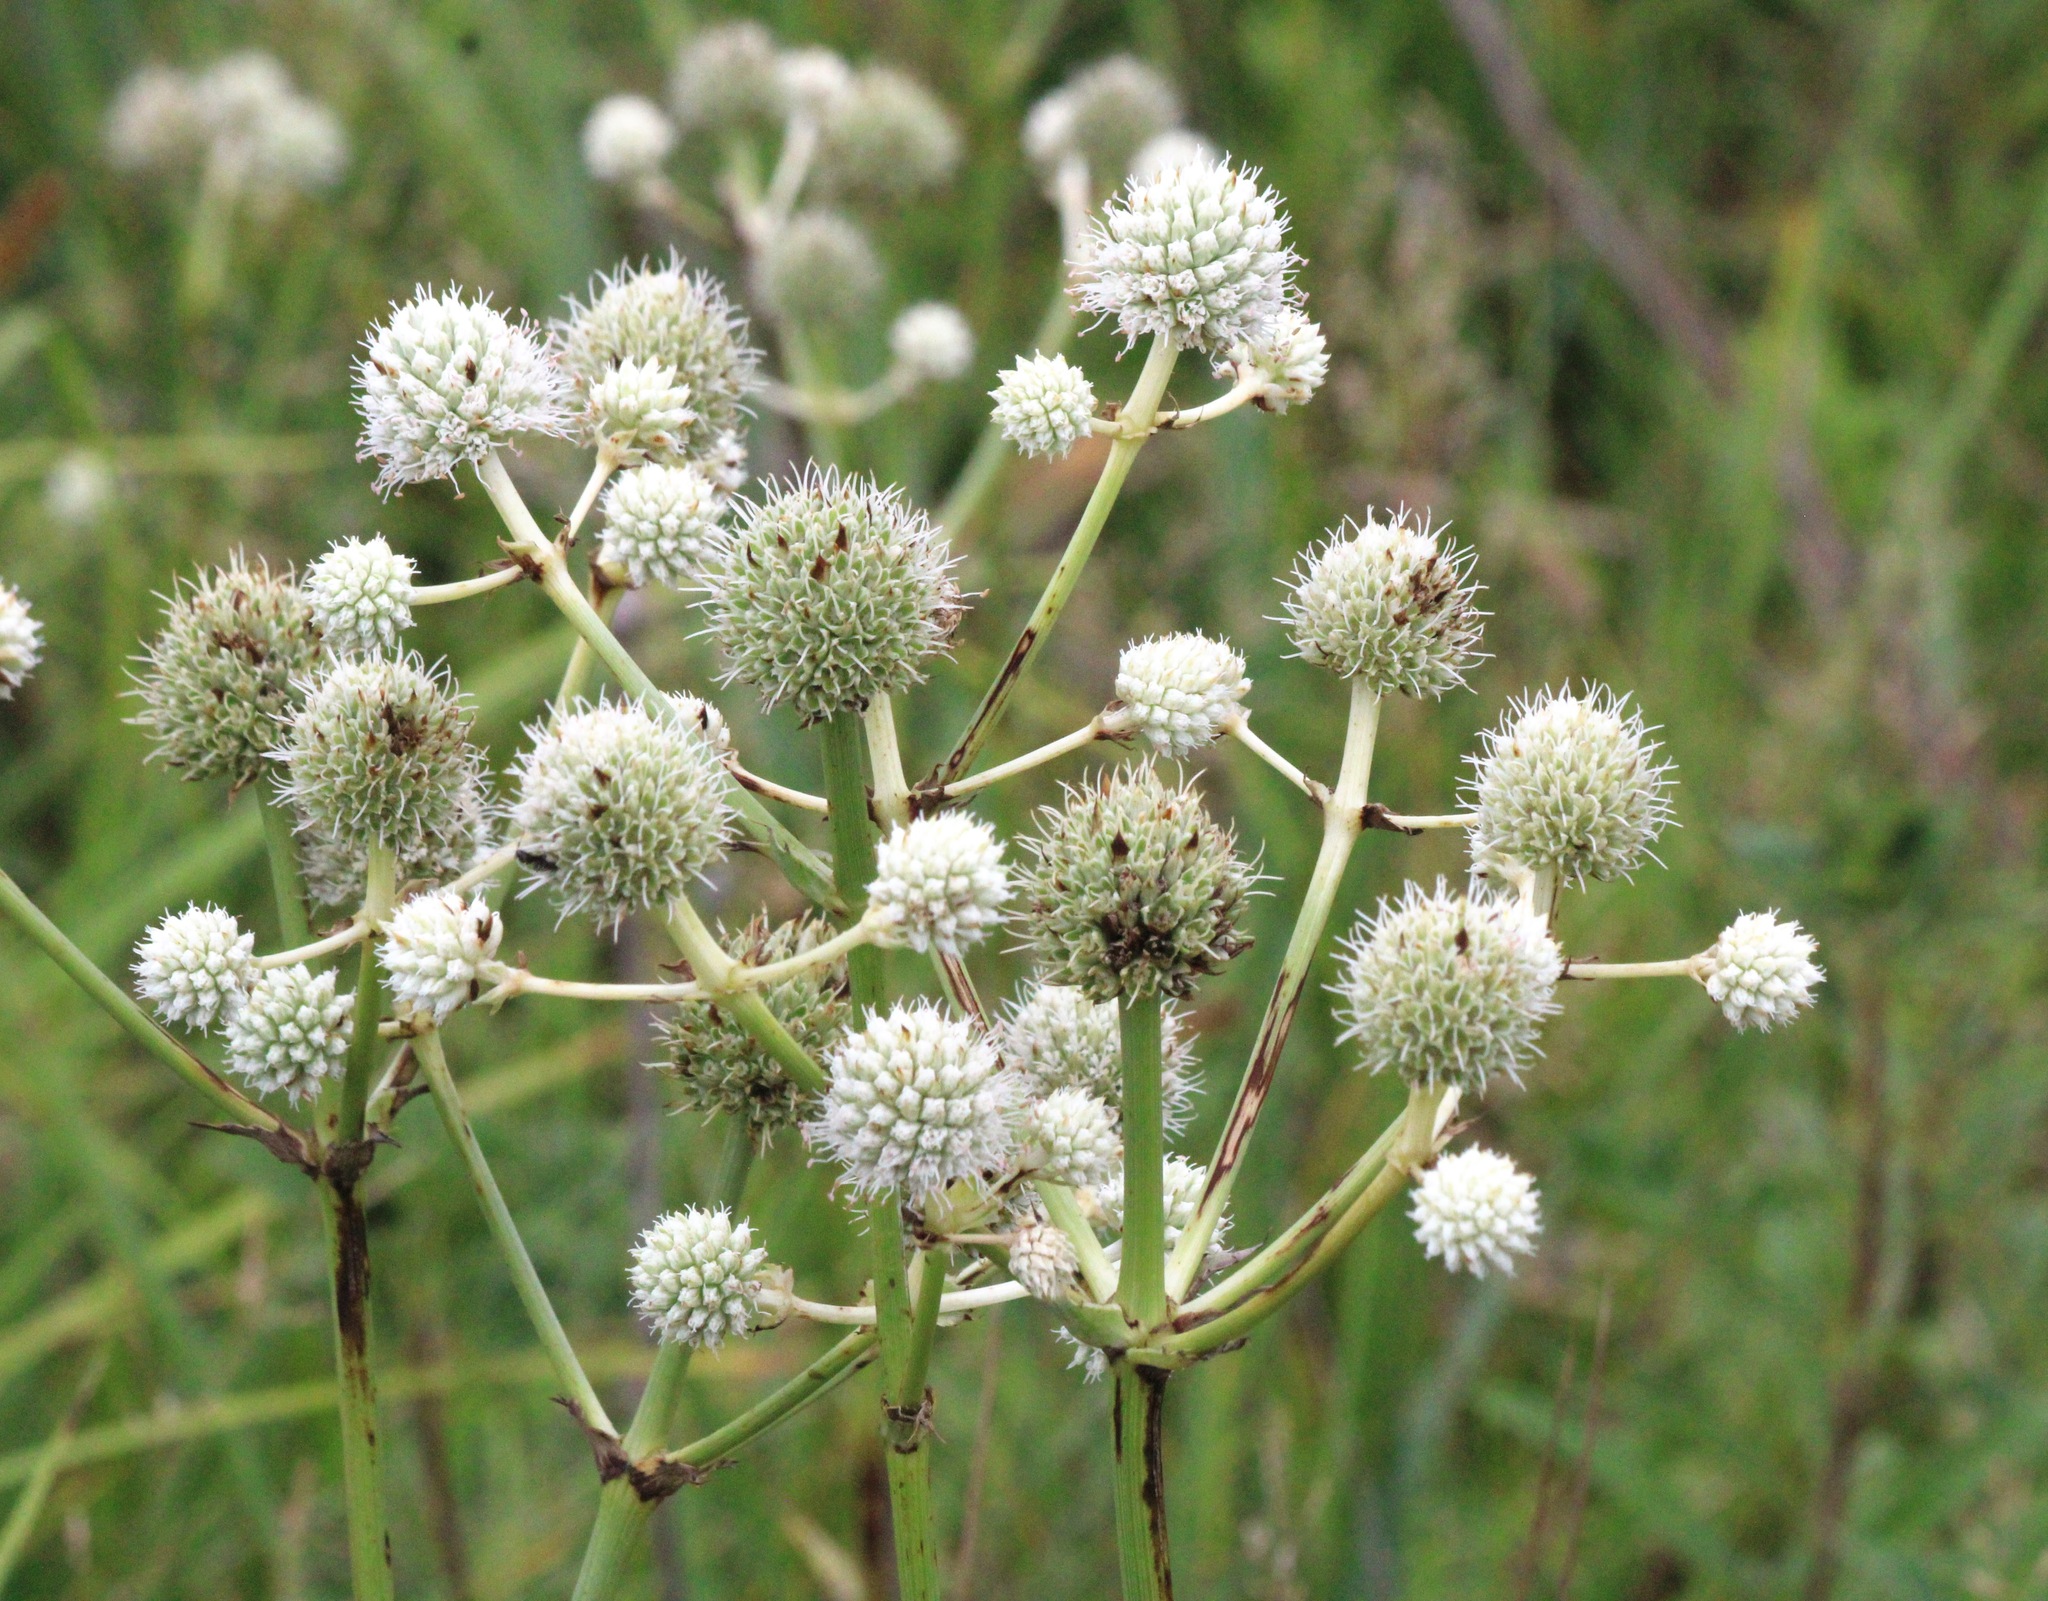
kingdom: Plantae
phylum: Tracheophyta
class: Magnoliopsida
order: Apiales
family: Apiaceae
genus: Eryngium
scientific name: Eryngium yuccifolium
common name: Button eryngo
